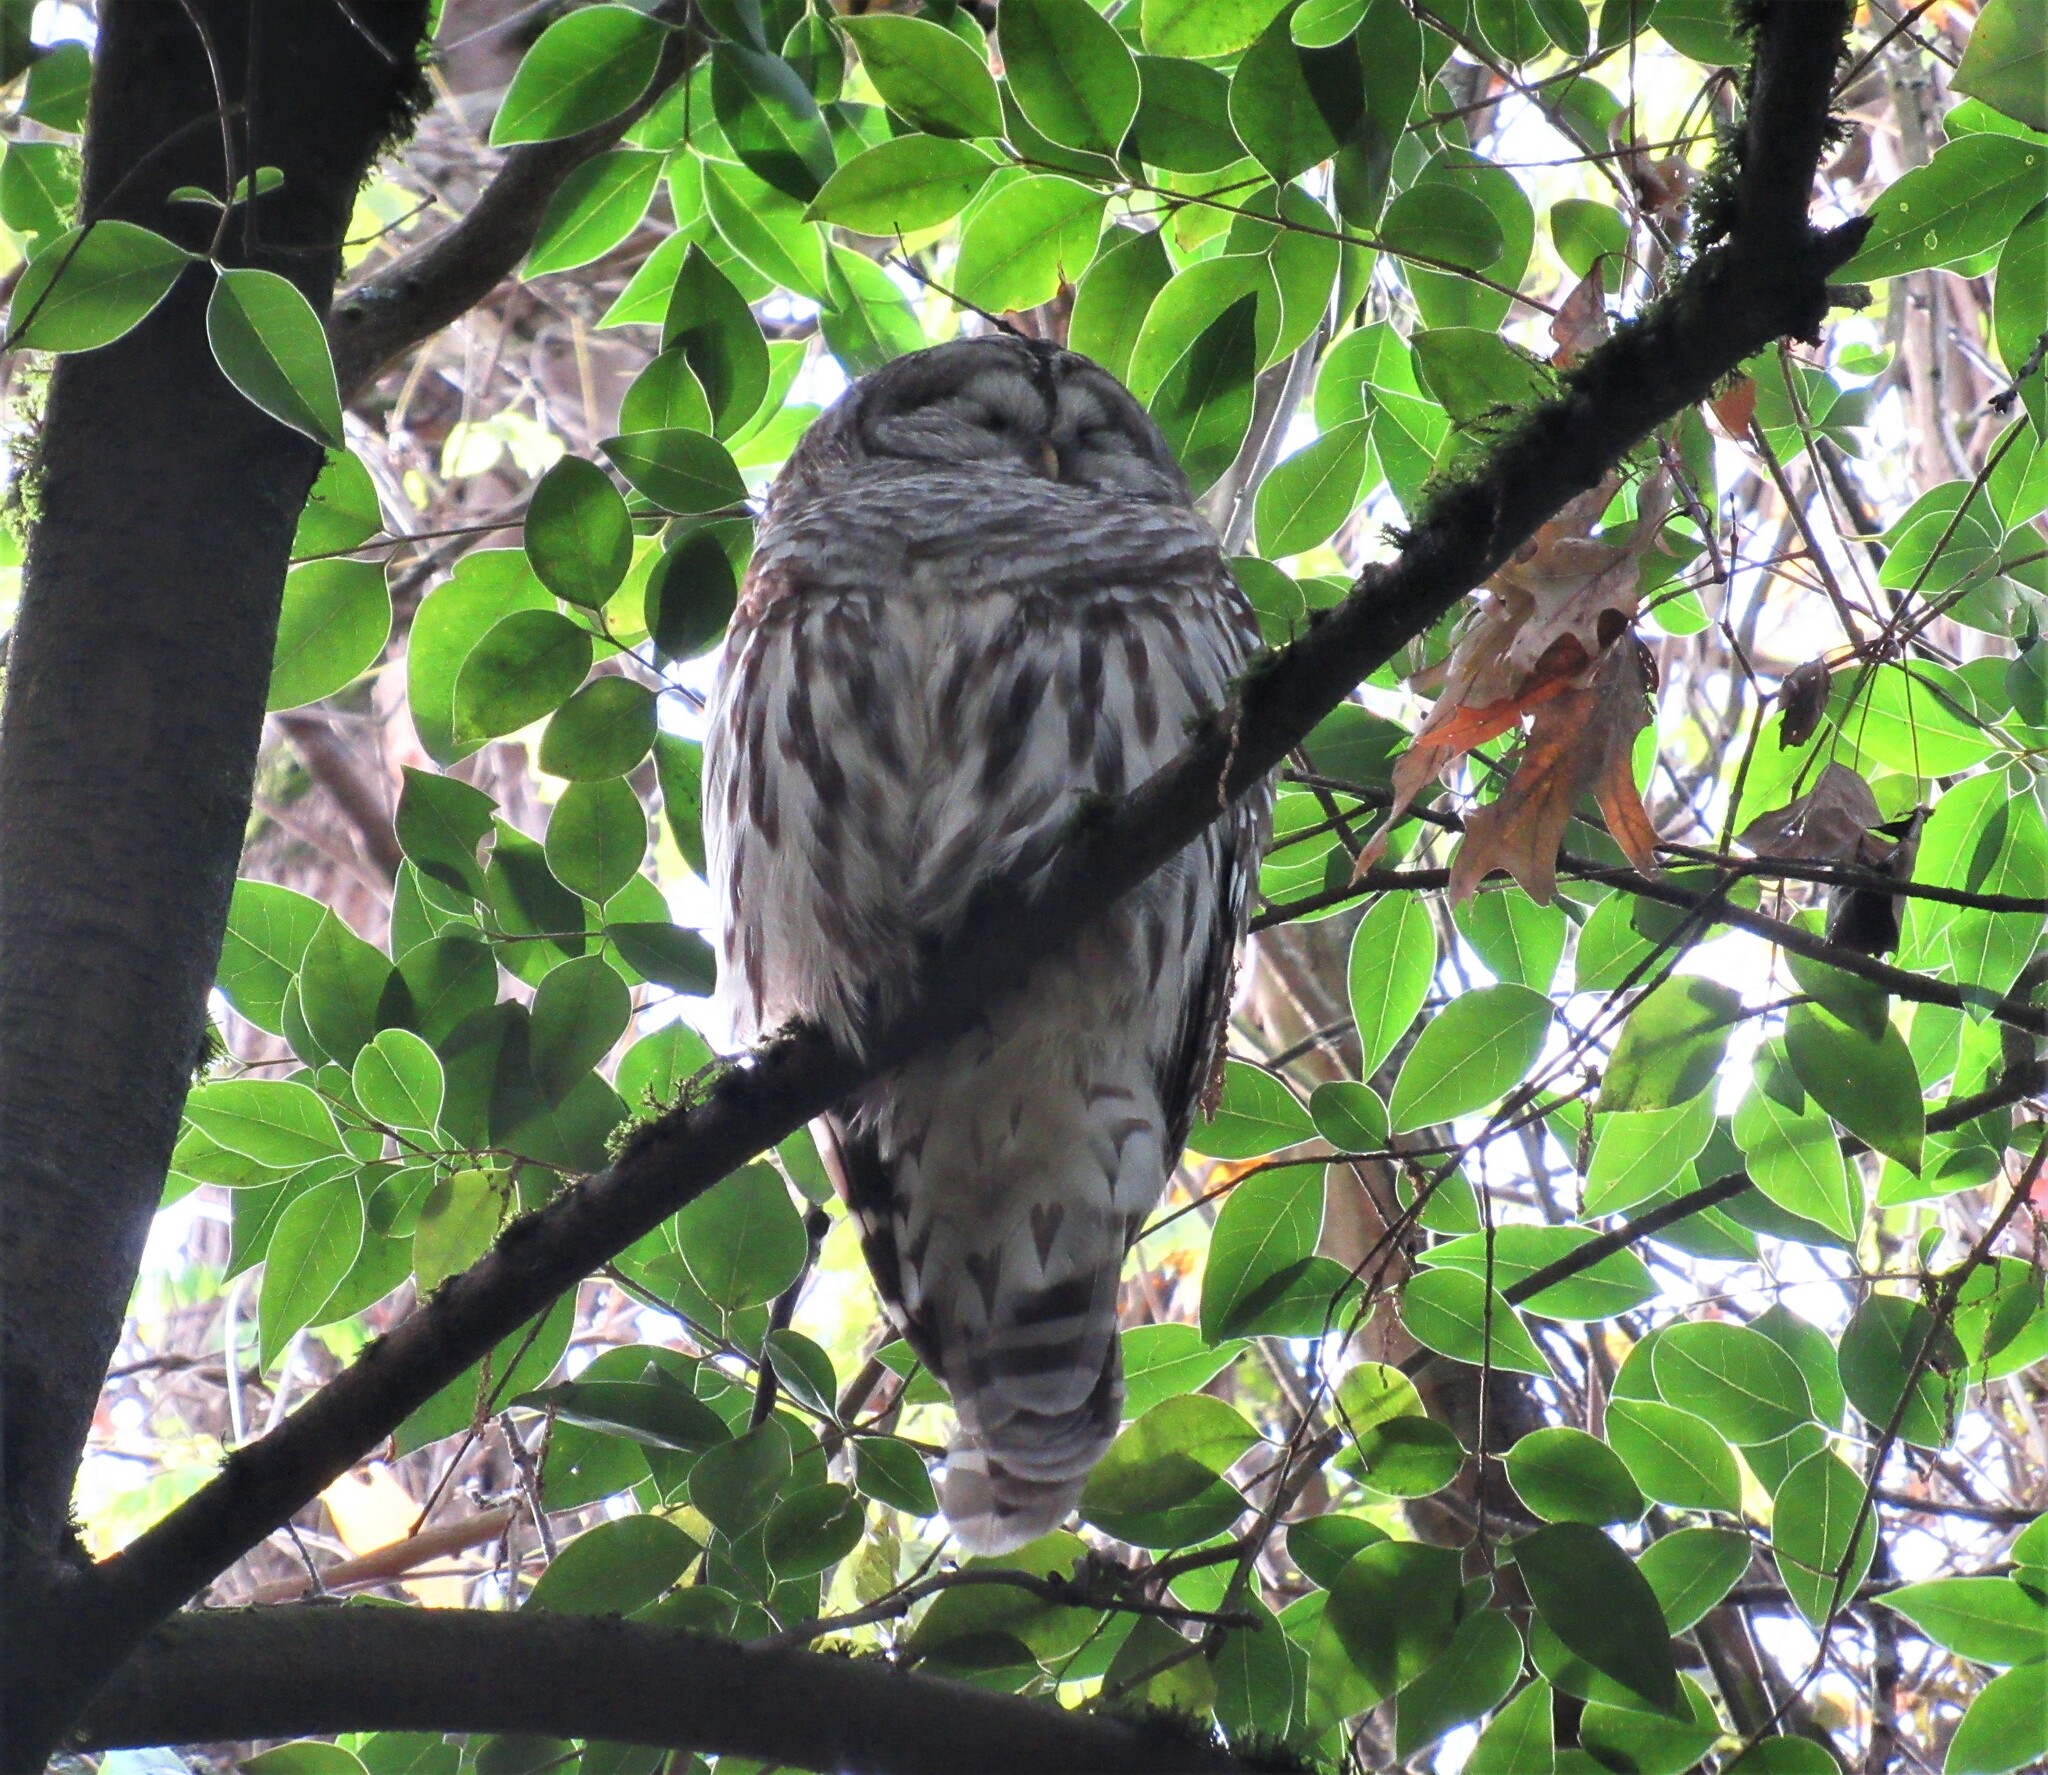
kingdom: Animalia
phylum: Chordata
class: Aves
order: Strigiformes
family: Strigidae
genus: Strix
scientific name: Strix varia
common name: Barred owl
